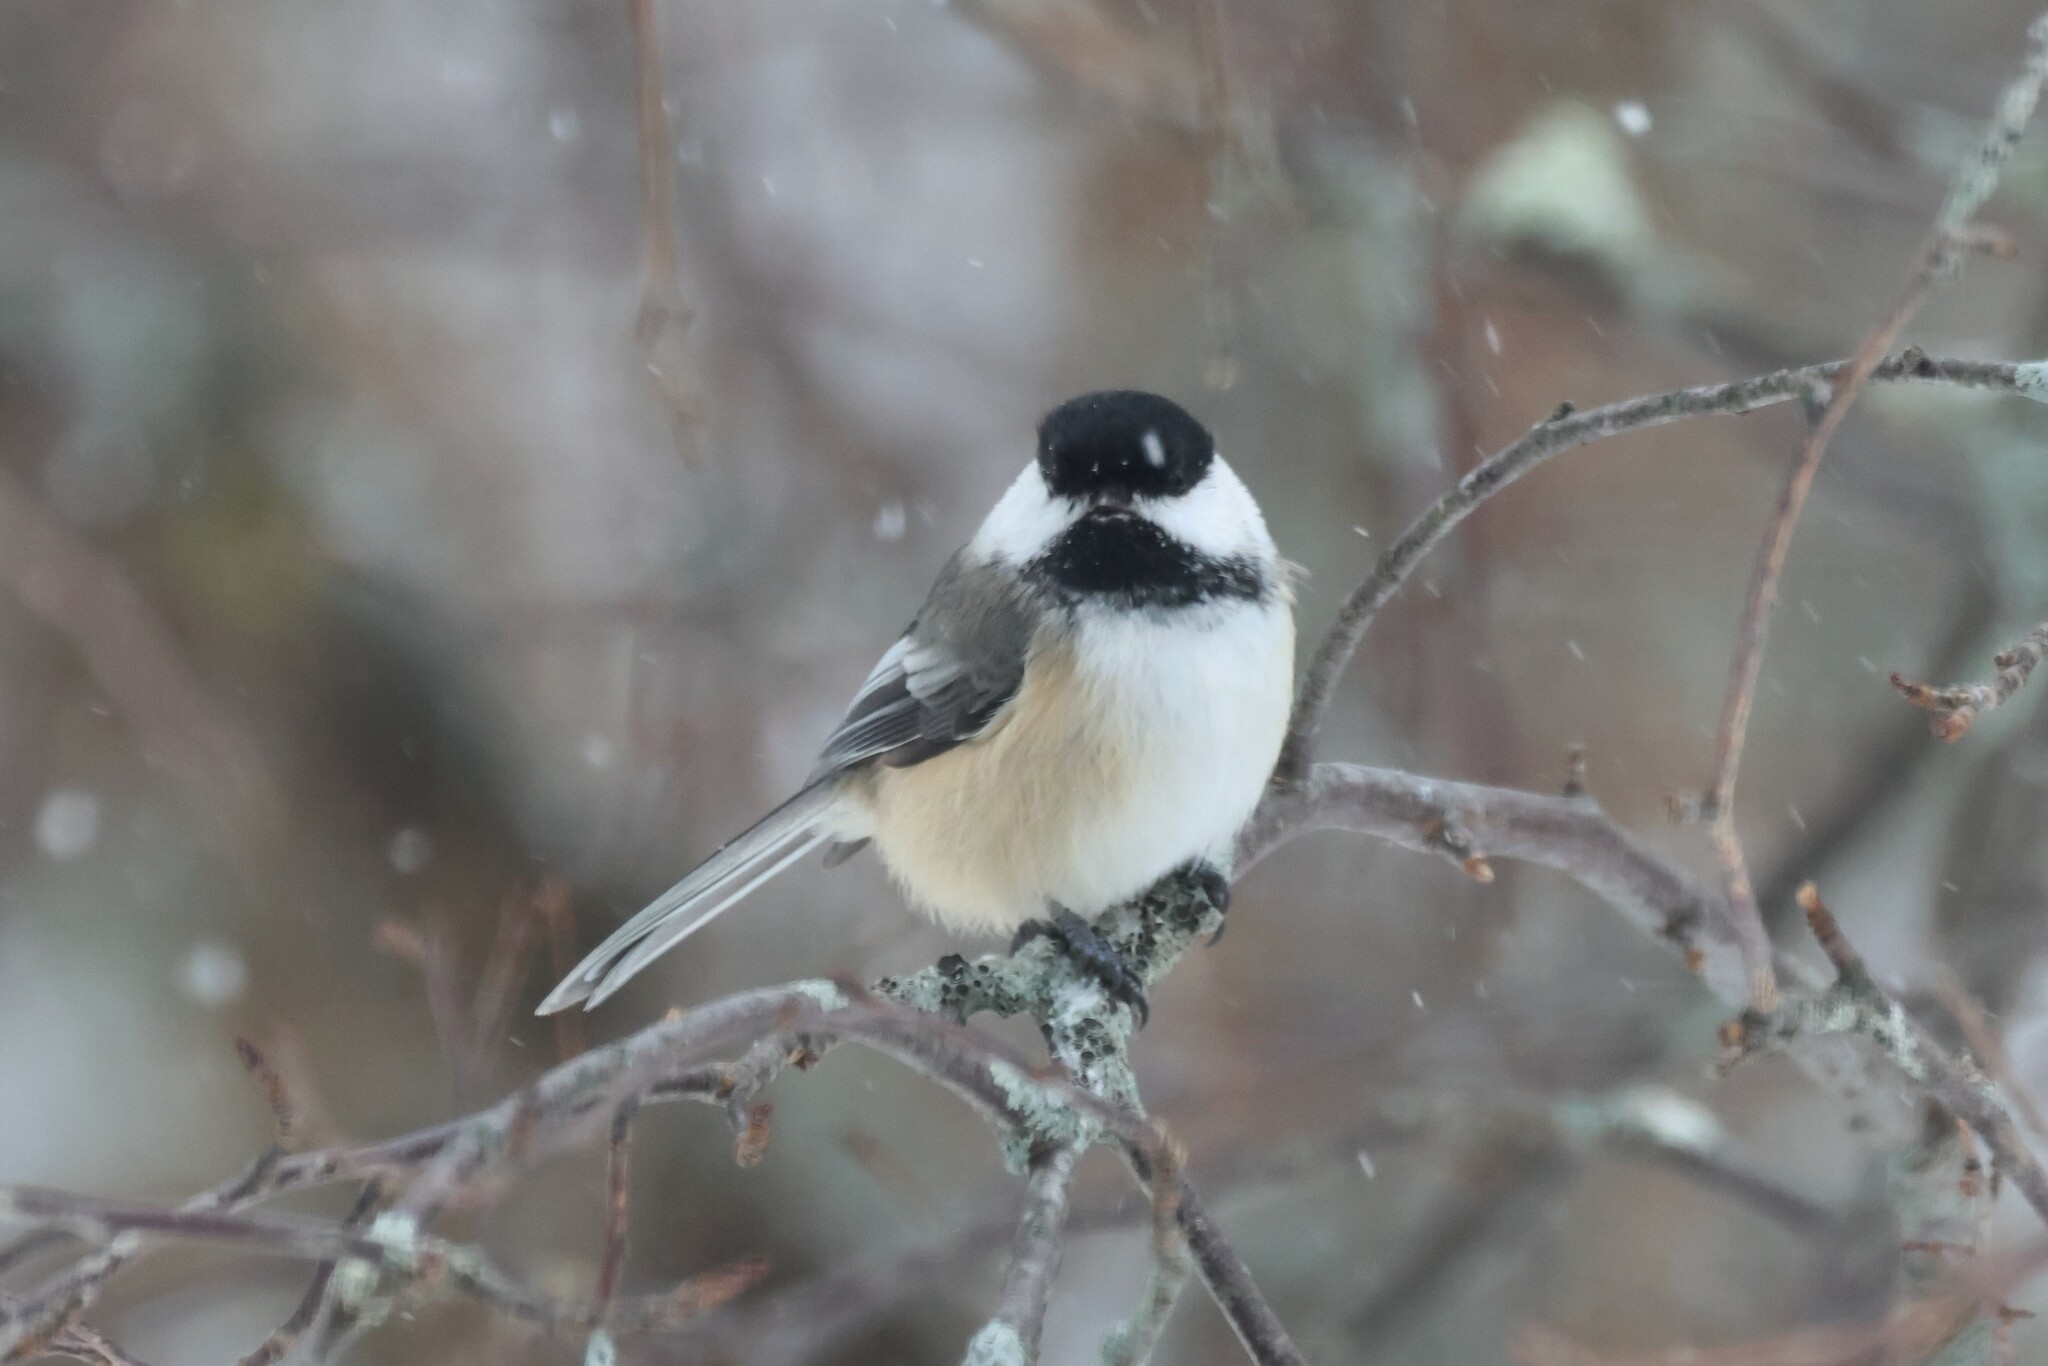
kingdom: Animalia
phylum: Chordata
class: Aves
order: Passeriformes
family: Paridae
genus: Poecile
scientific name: Poecile atricapillus
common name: Black-capped chickadee
